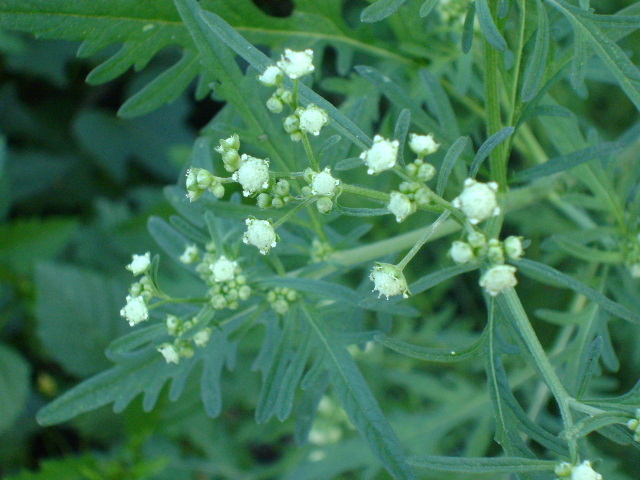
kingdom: Plantae
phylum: Tracheophyta
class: Magnoliopsida
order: Asterales
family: Asteraceae
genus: Parthenium
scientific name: Parthenium hysterophorus
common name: Santa maria feverfew
